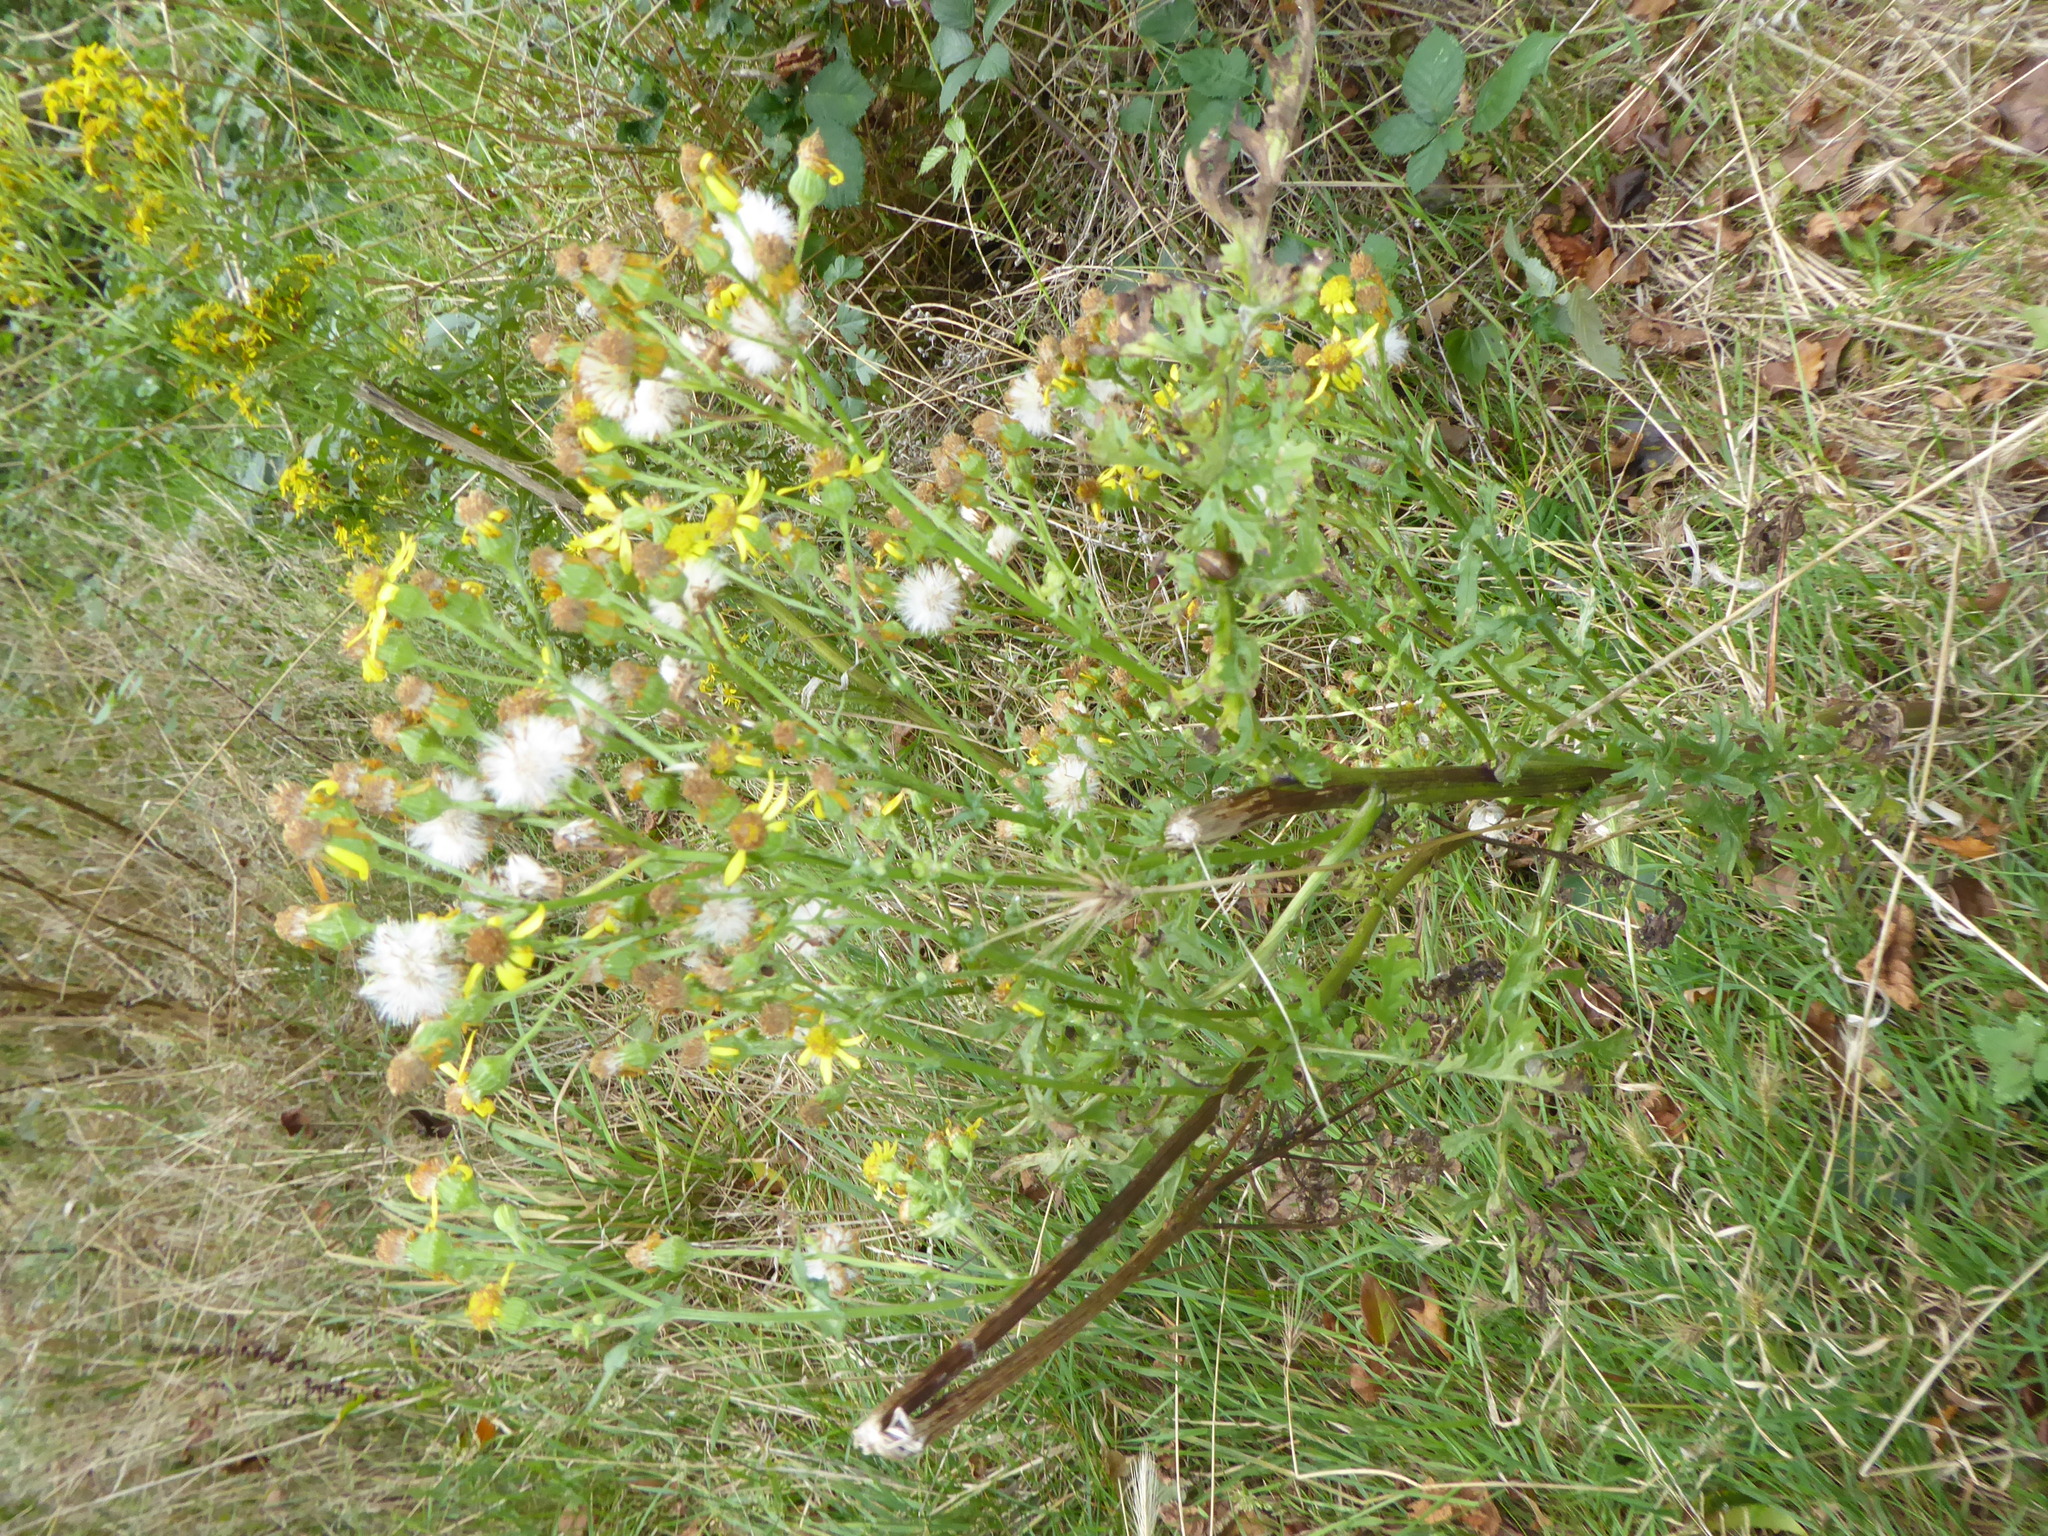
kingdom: Plantae
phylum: Tracheophyta
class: Magnoliopsida
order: Asterales
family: Asteraceae
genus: Jacobaea
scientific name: Jacobaea vulgaris
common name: Stinking willie
